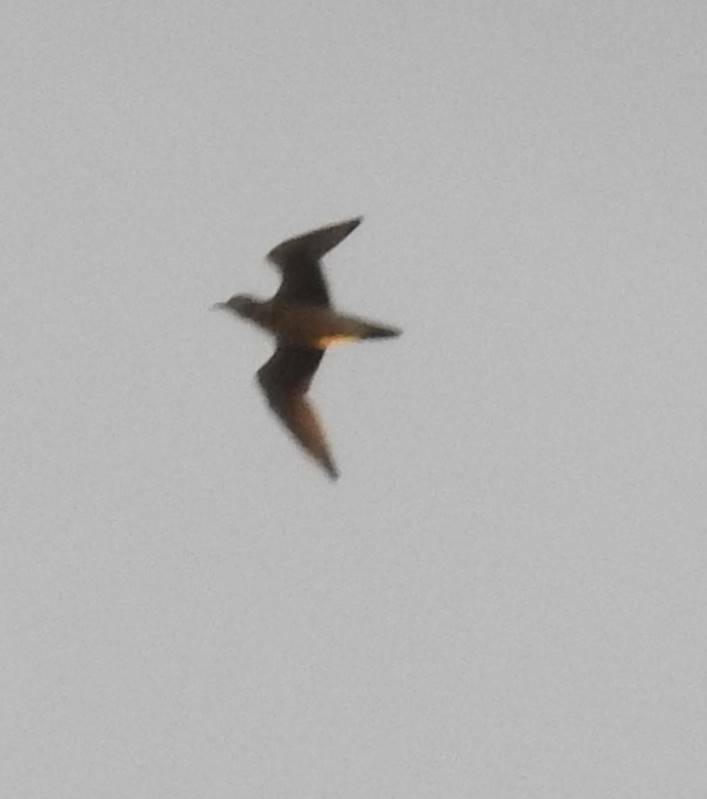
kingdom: Animalia
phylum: Chordata
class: Aves
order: Charadriiformes
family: Charadriidae
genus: Charadrius
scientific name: Charadrius morinellus
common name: Eurasian dotterel
